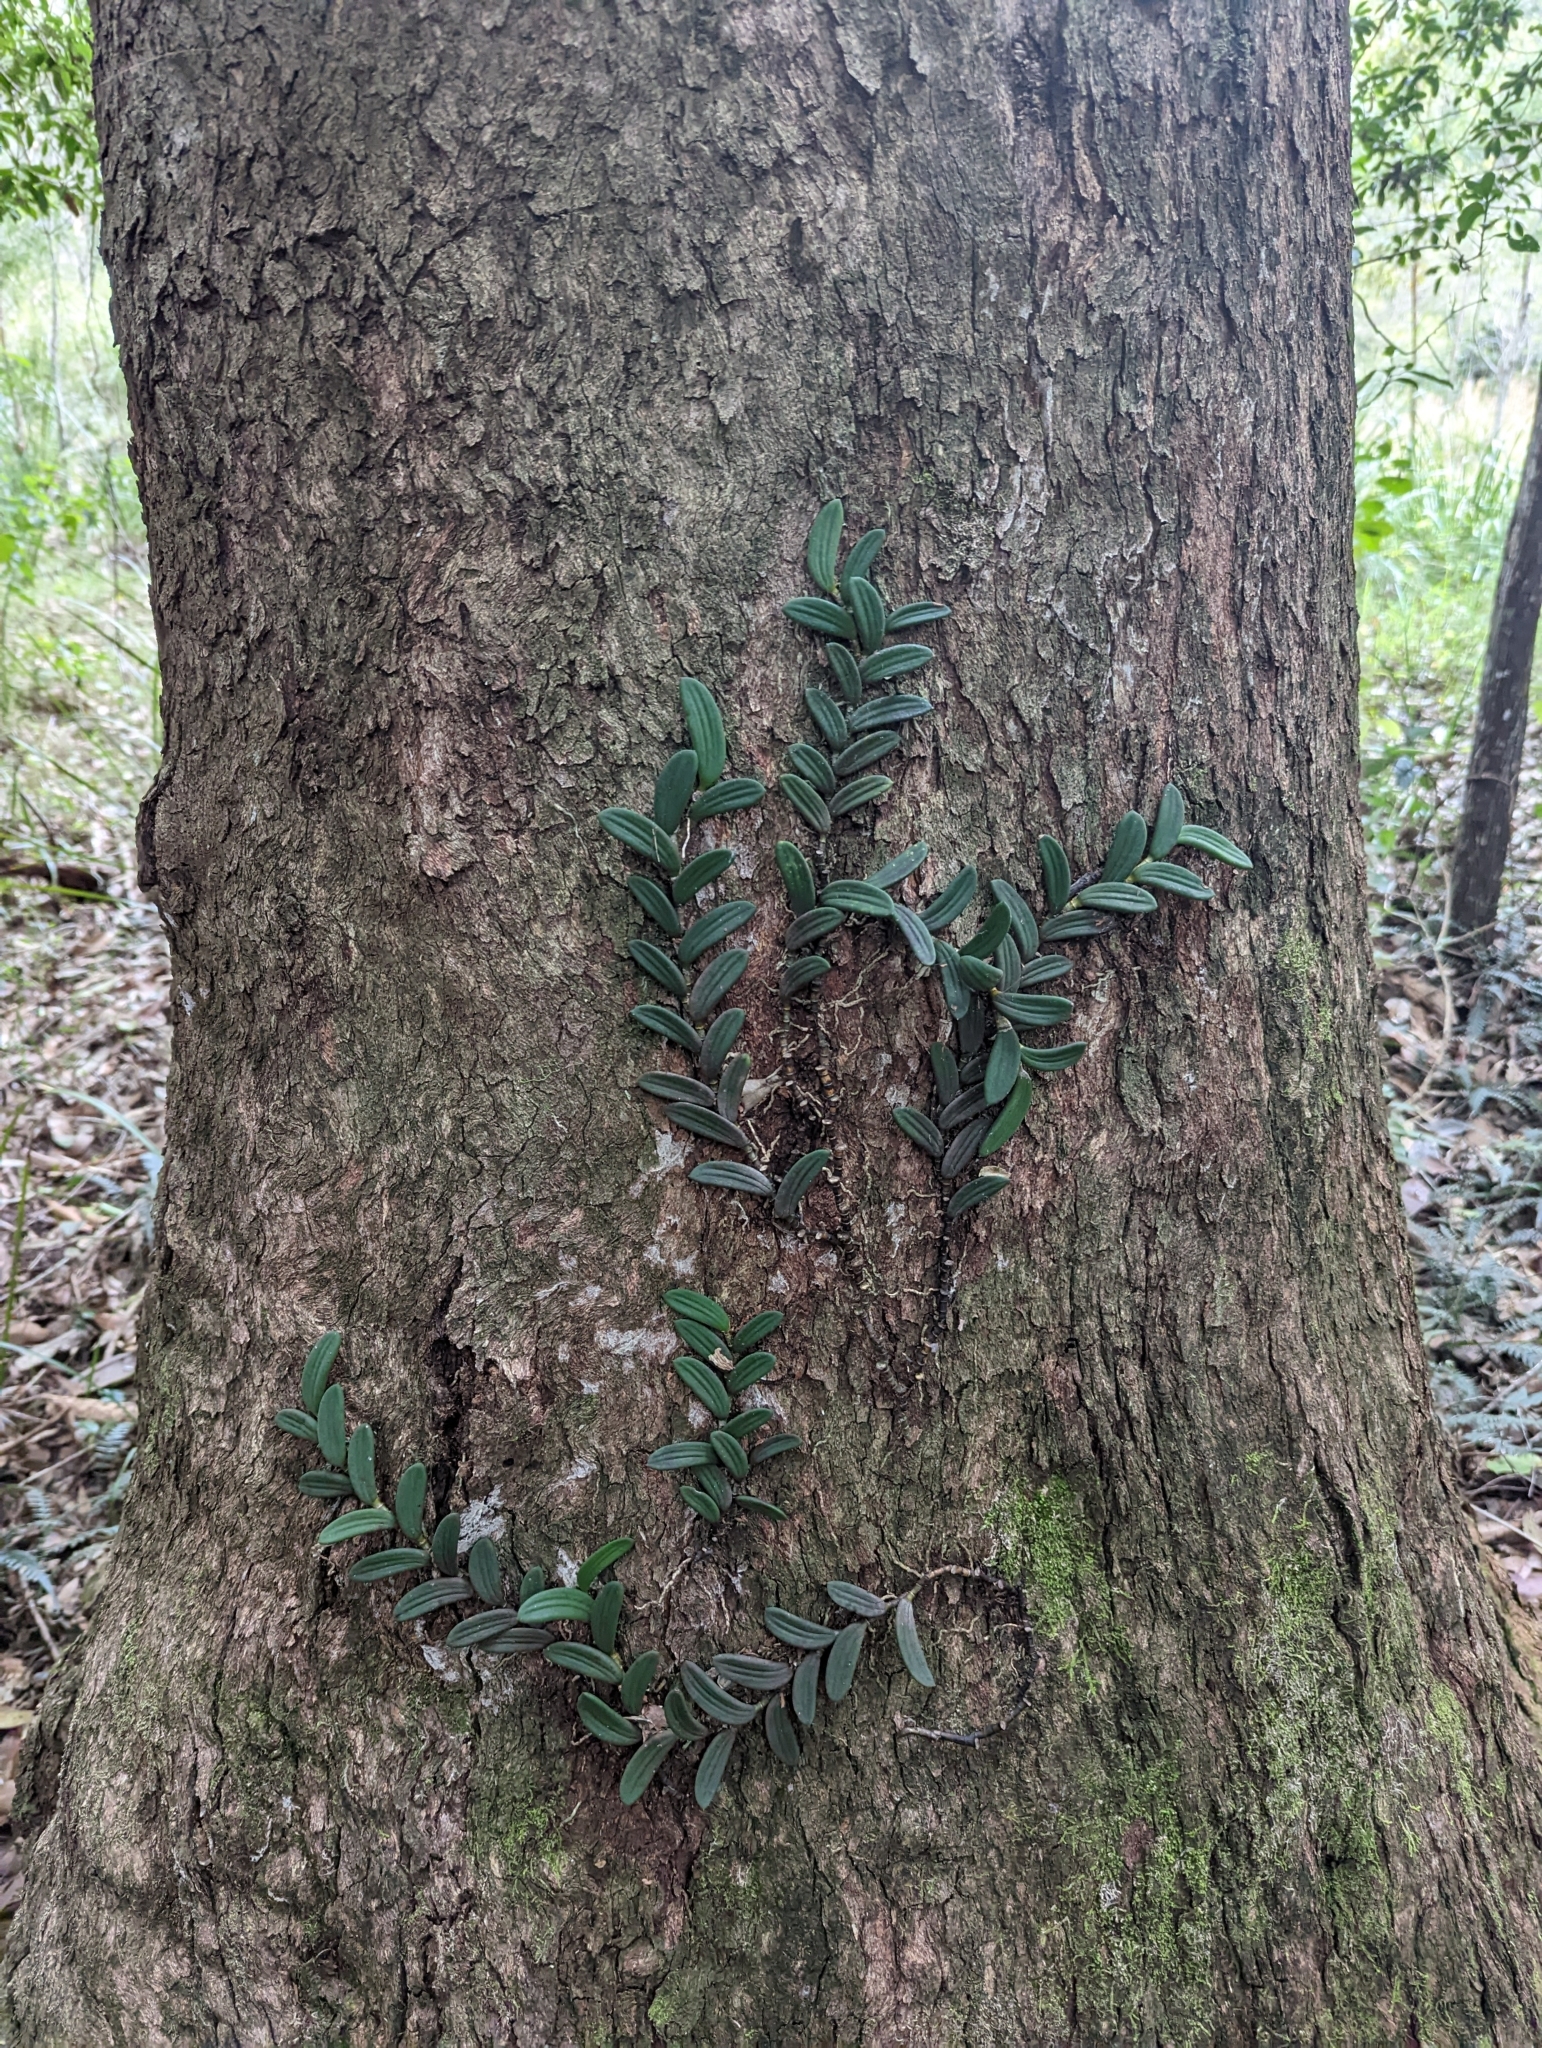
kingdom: Plantae
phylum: Tracheophyta
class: Liliopsida
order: Asparagales
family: Orchidaceae
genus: Dendrobium
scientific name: Dendrobium linguiforme
